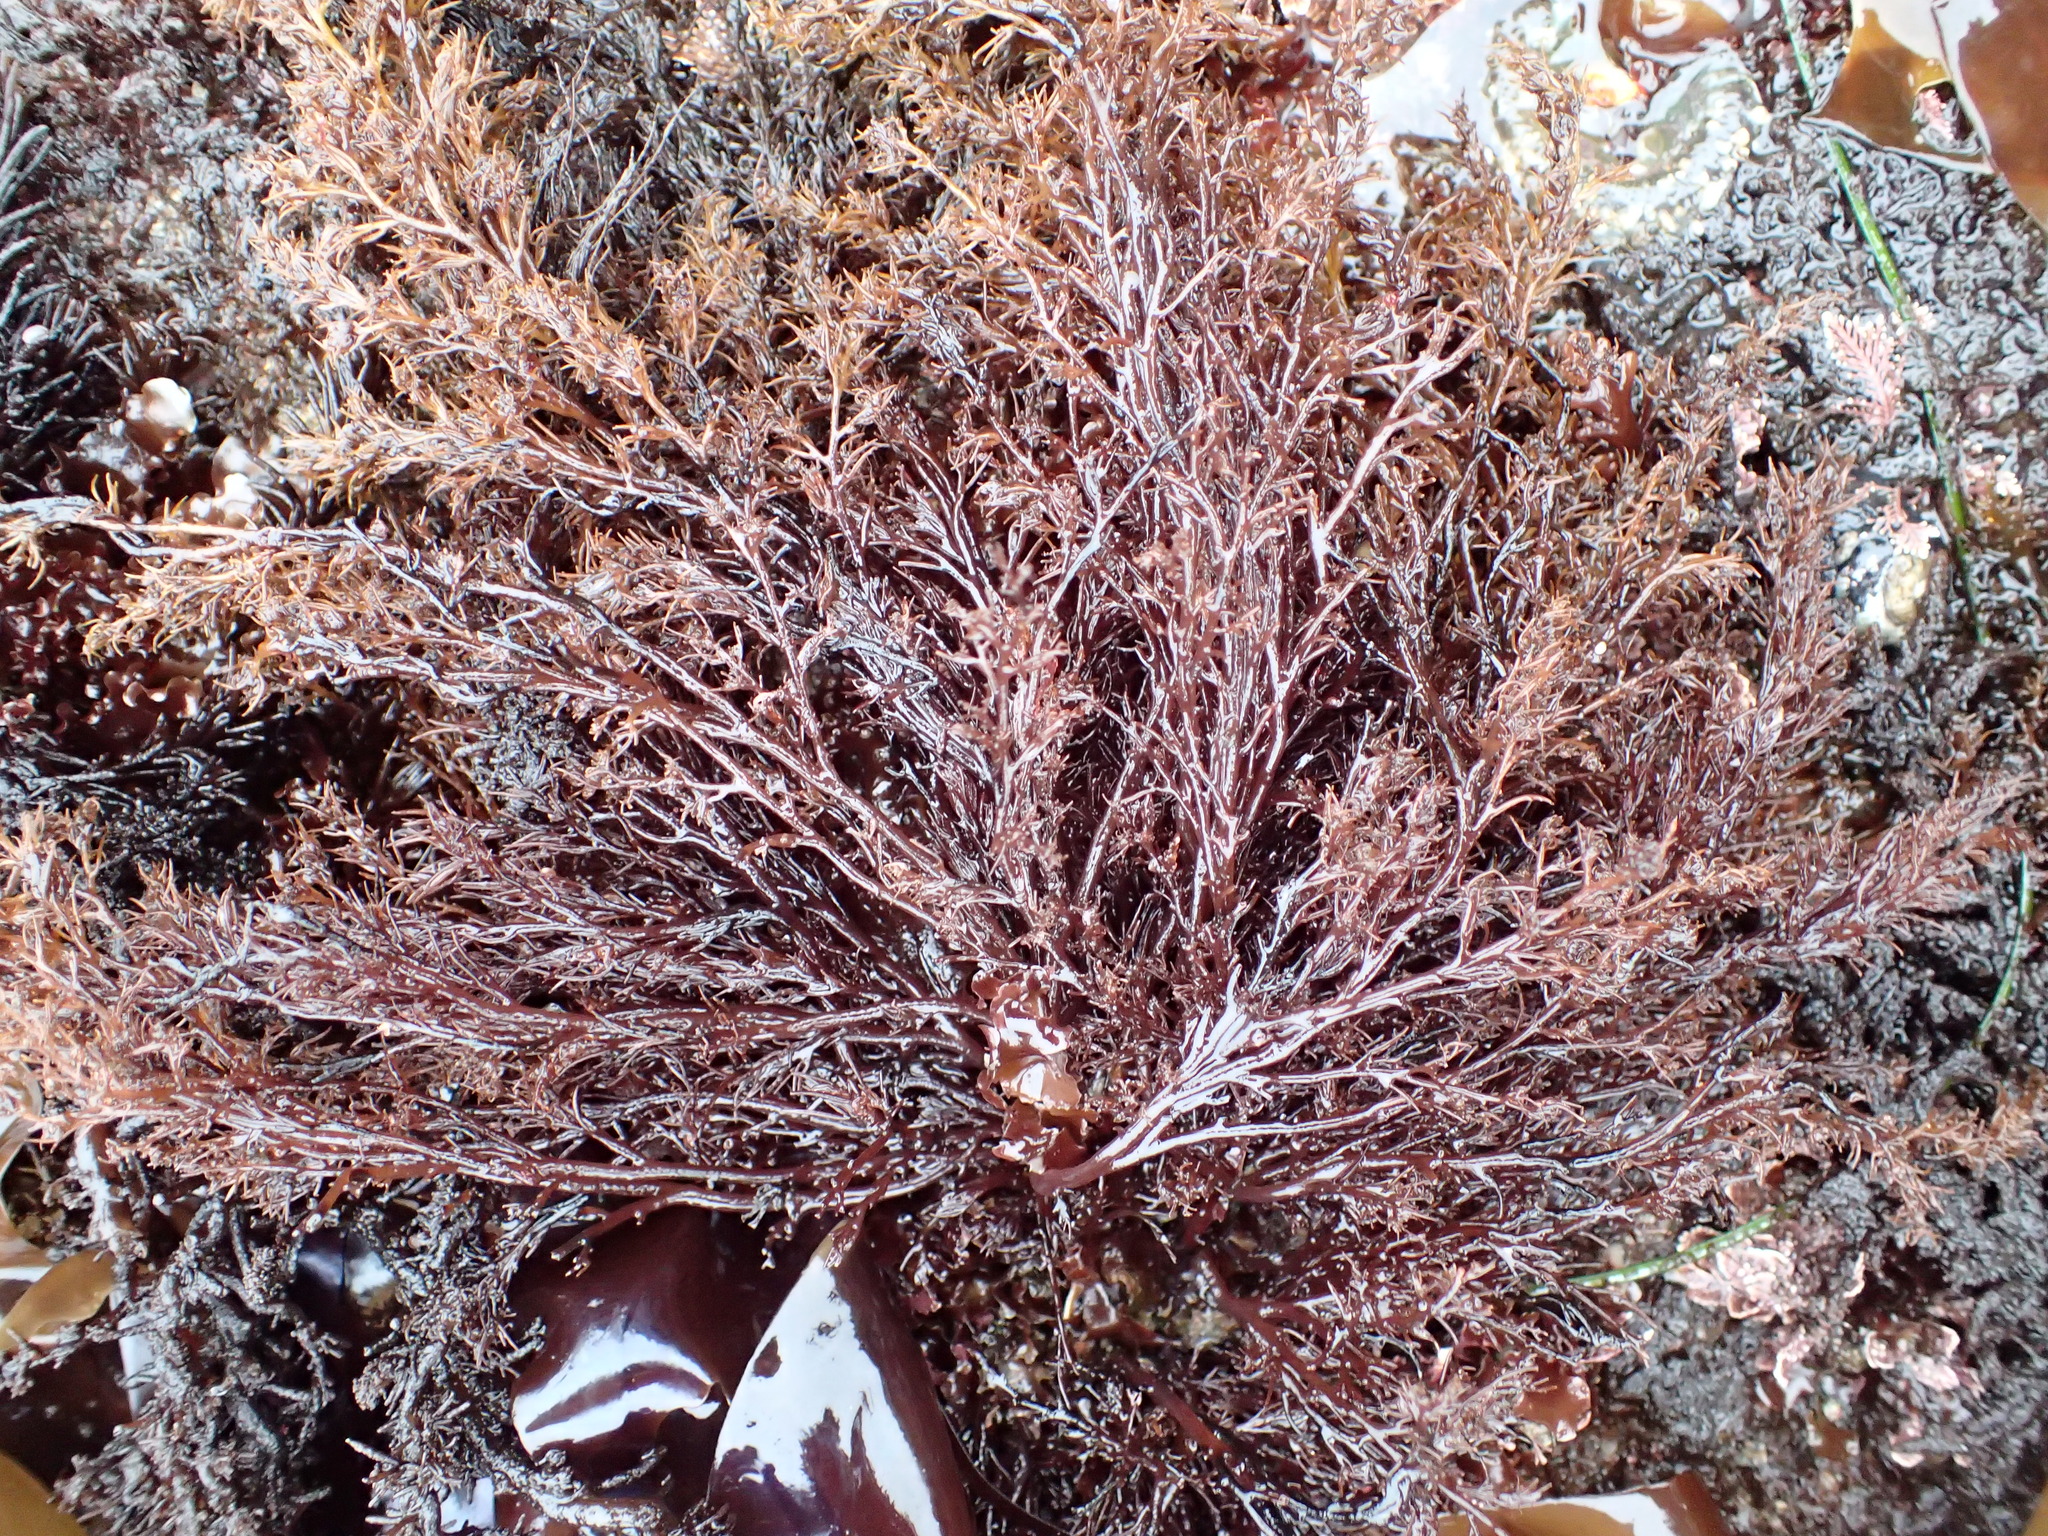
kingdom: Plantae
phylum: Rhodophyta
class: Florideophyceae
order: Ceramiales
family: Rhodomelaceae
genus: Odonthalia
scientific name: Odonthalia floccosa
